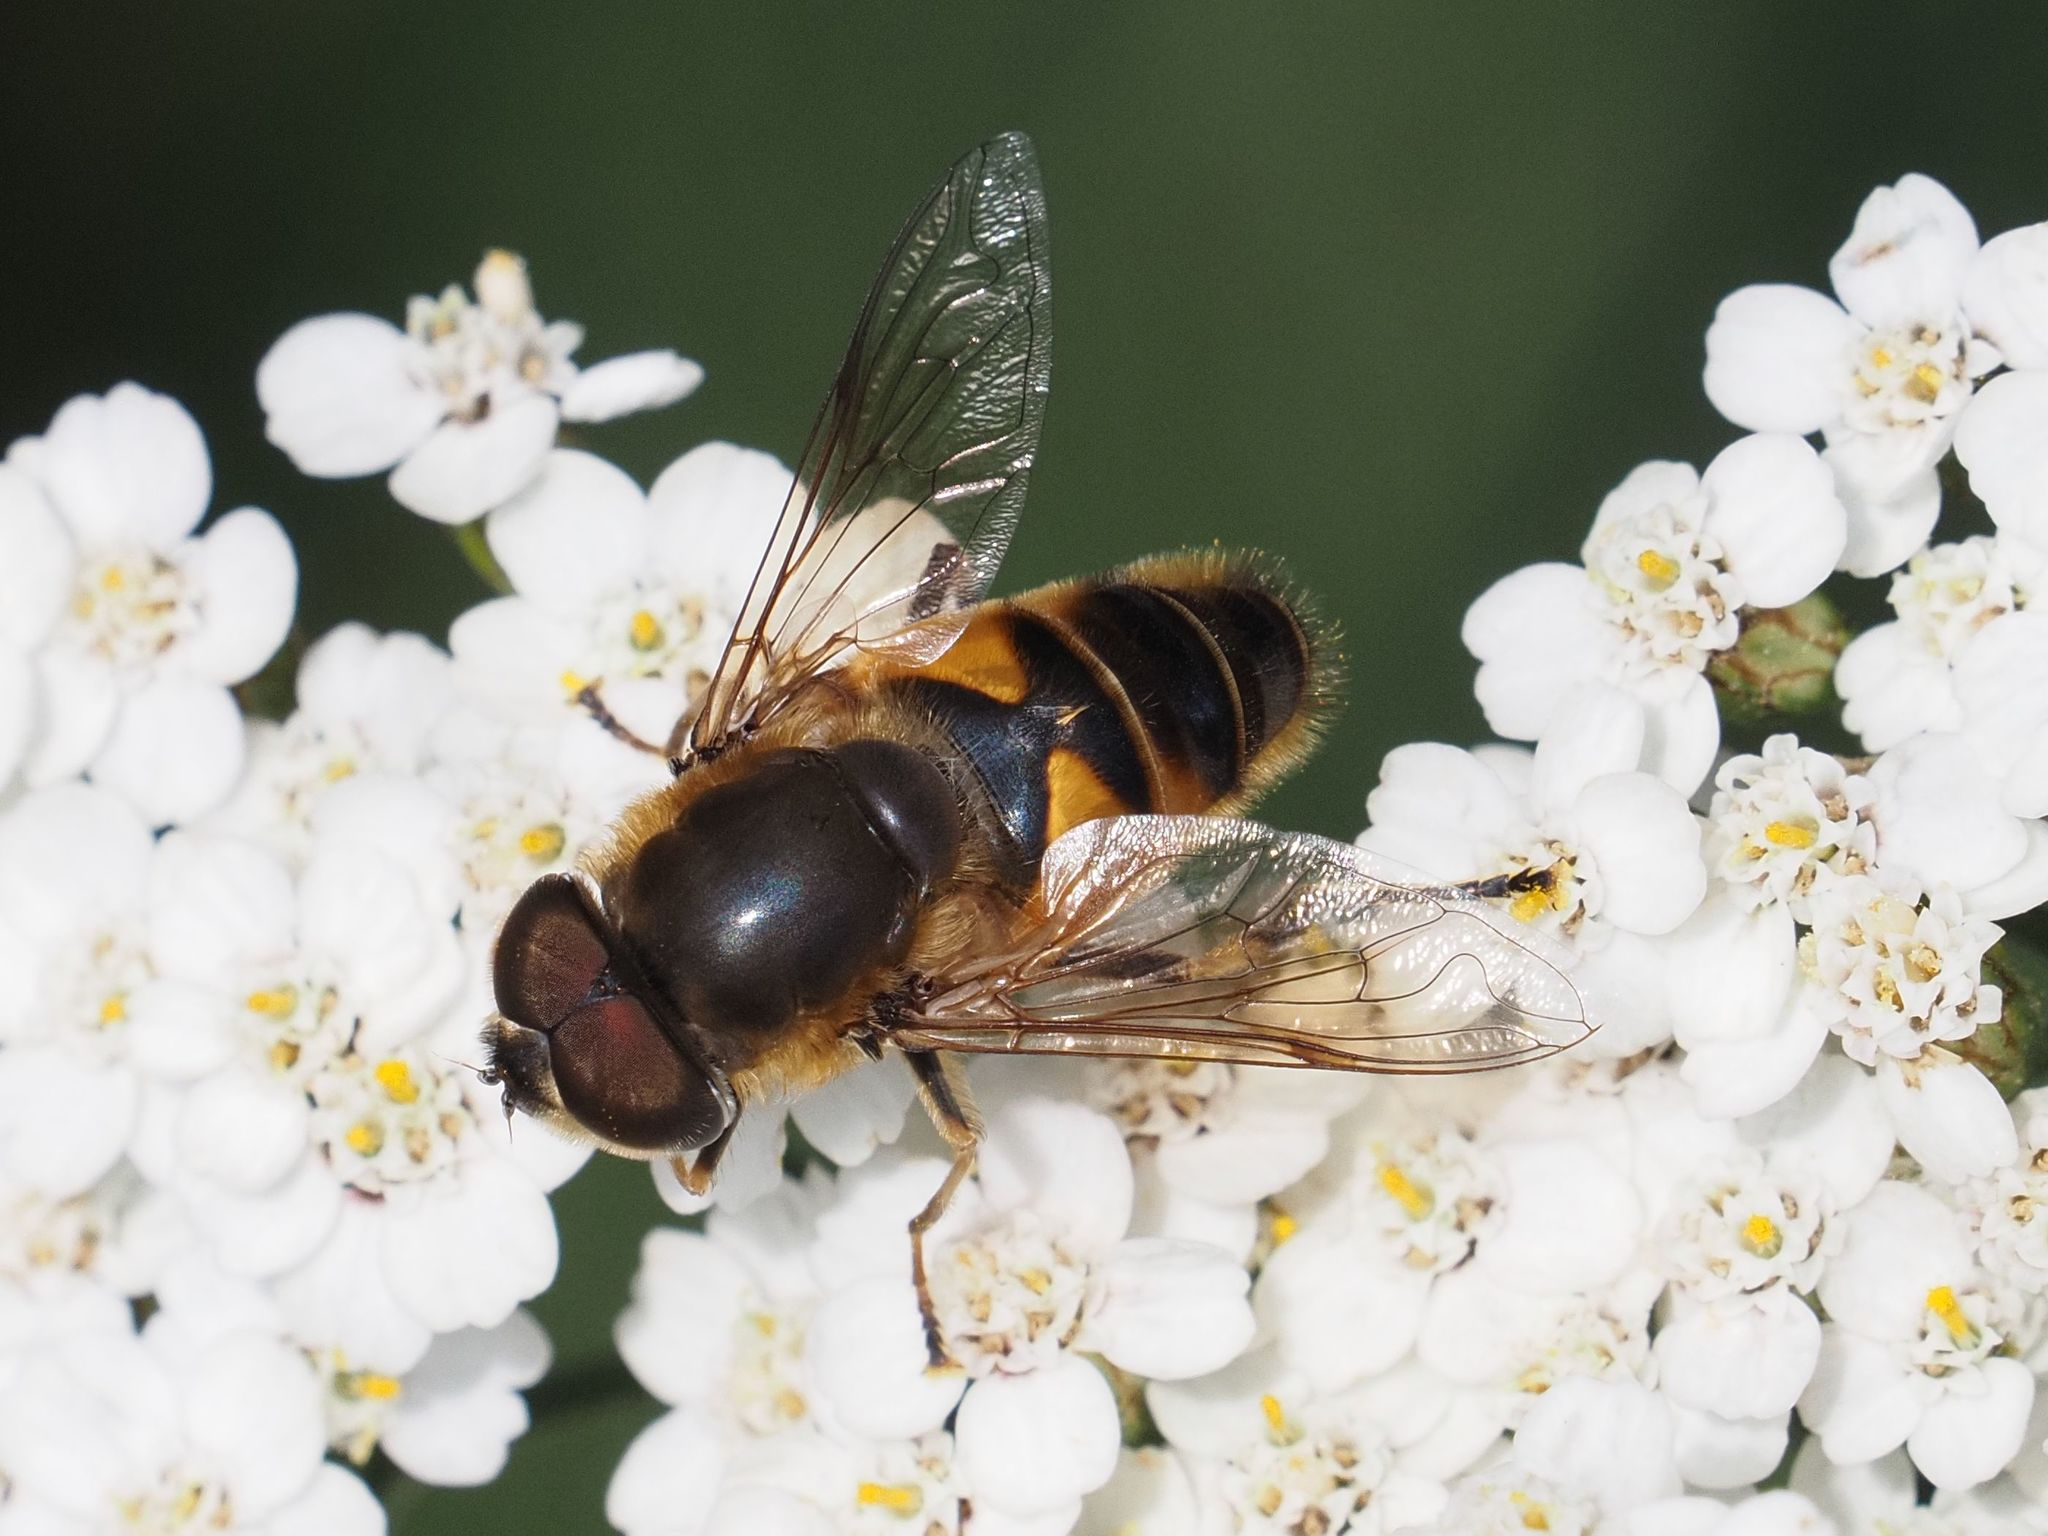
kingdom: Animalia
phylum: Arthropoda
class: Insecta
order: Diptera
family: Syrphidae
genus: Eristalis
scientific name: Eristalis pertinax
